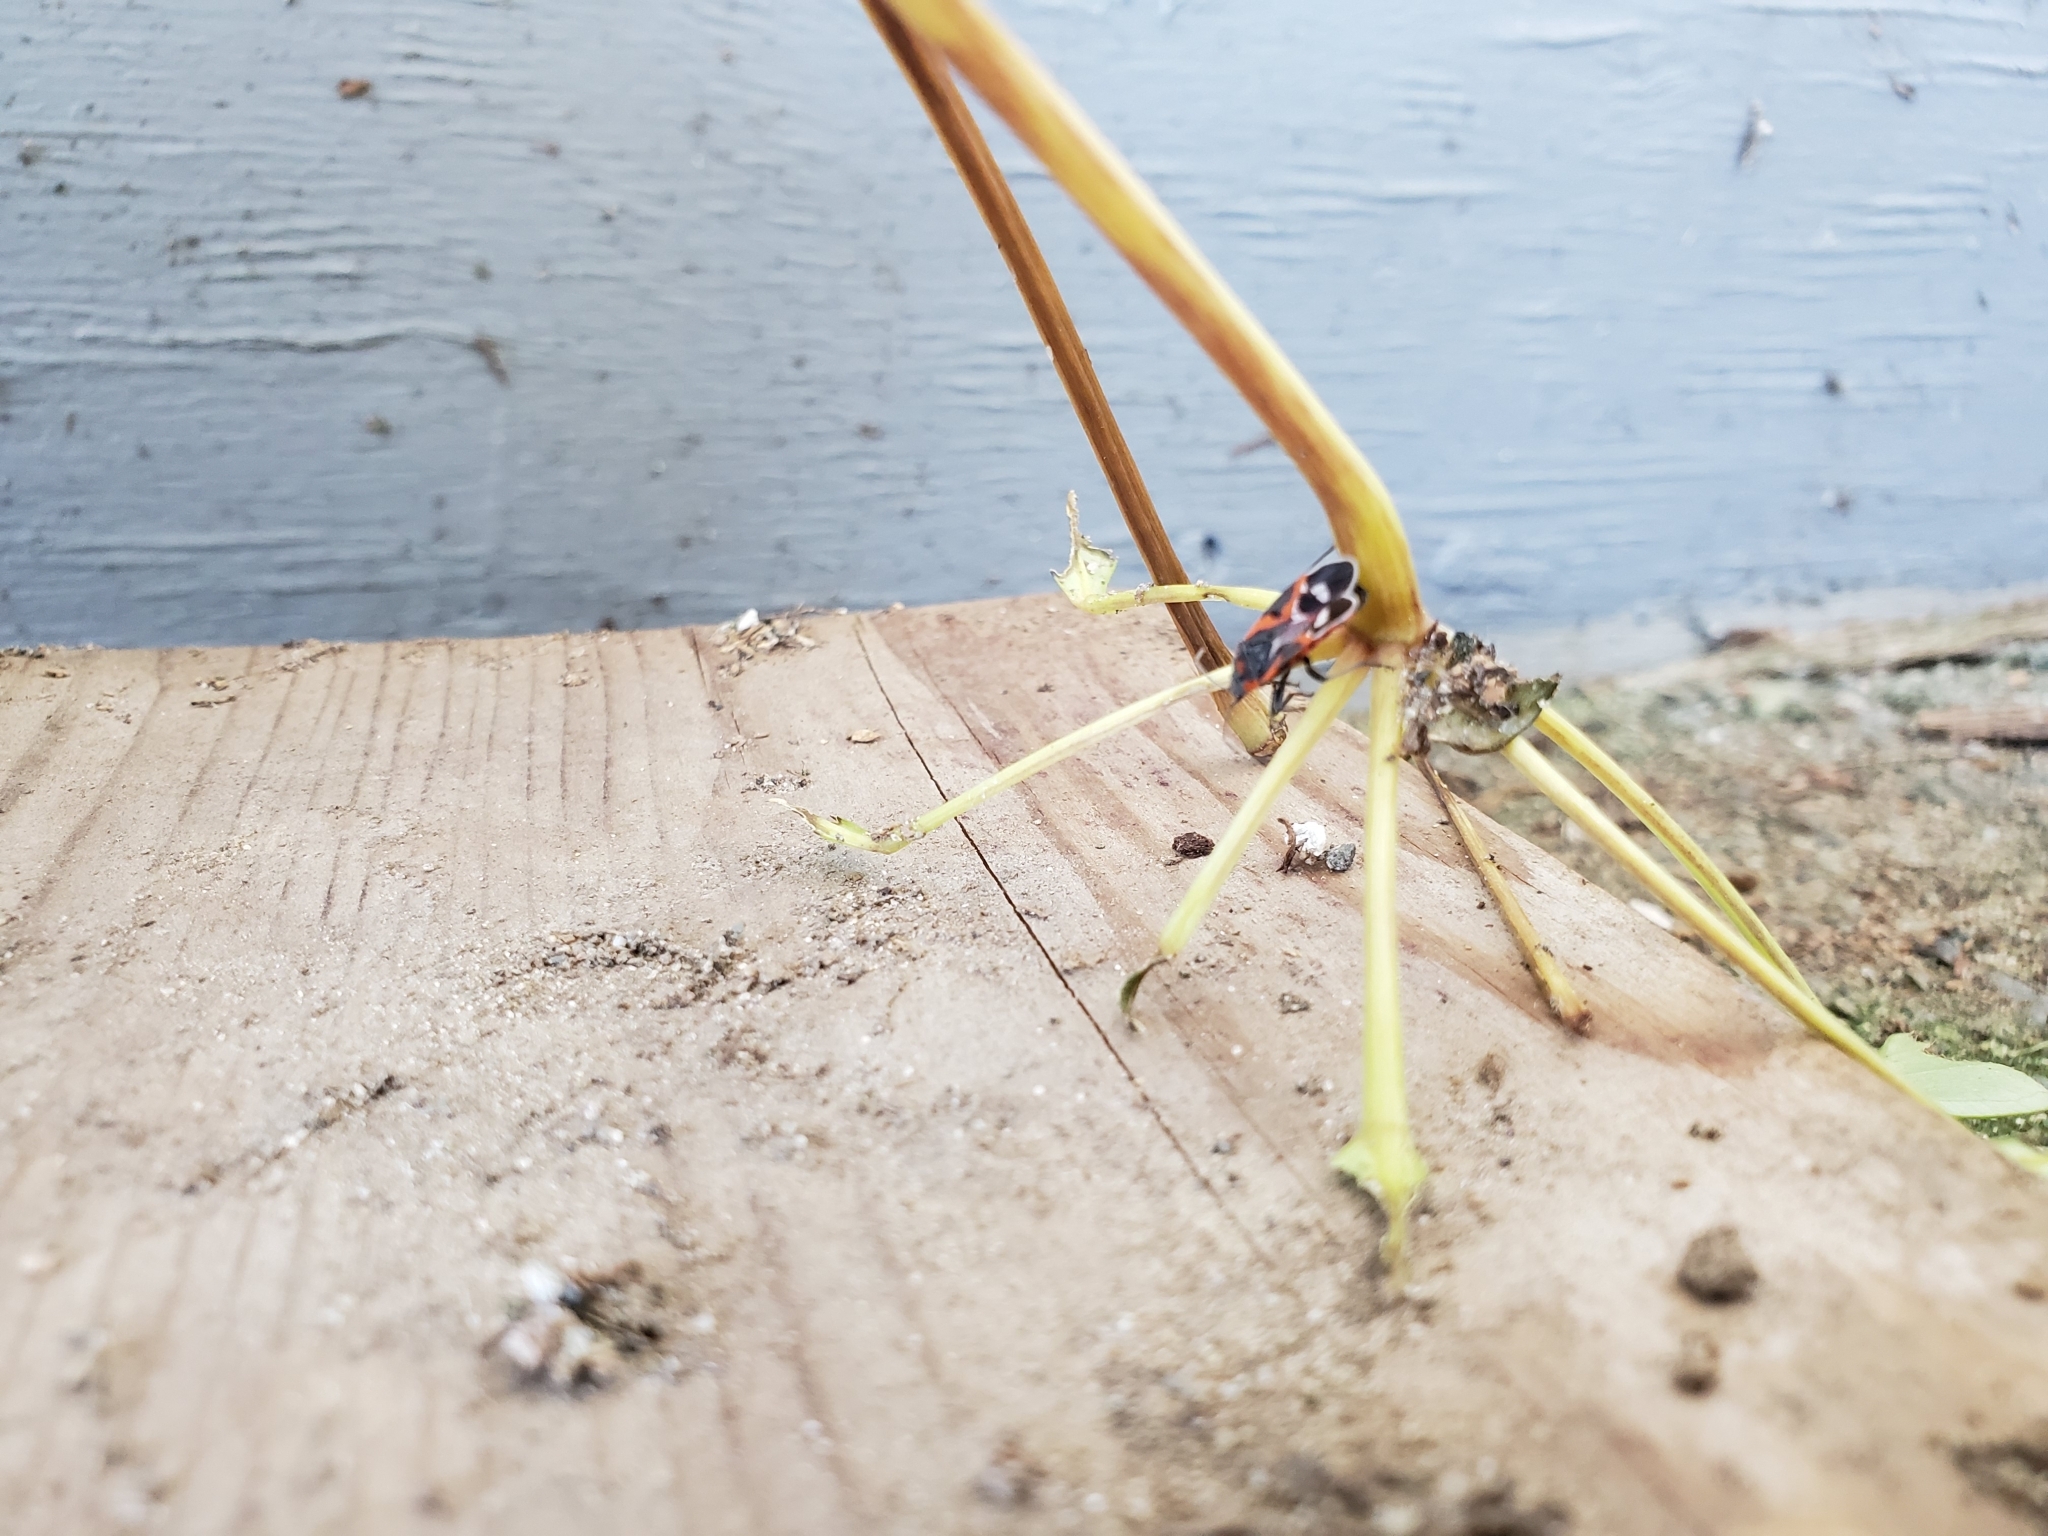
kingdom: Animalia
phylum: Arthropoda
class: Insecta
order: Hemiptera
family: Lygaeidae
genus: Lygaeus
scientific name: Lygaeus kalmii
